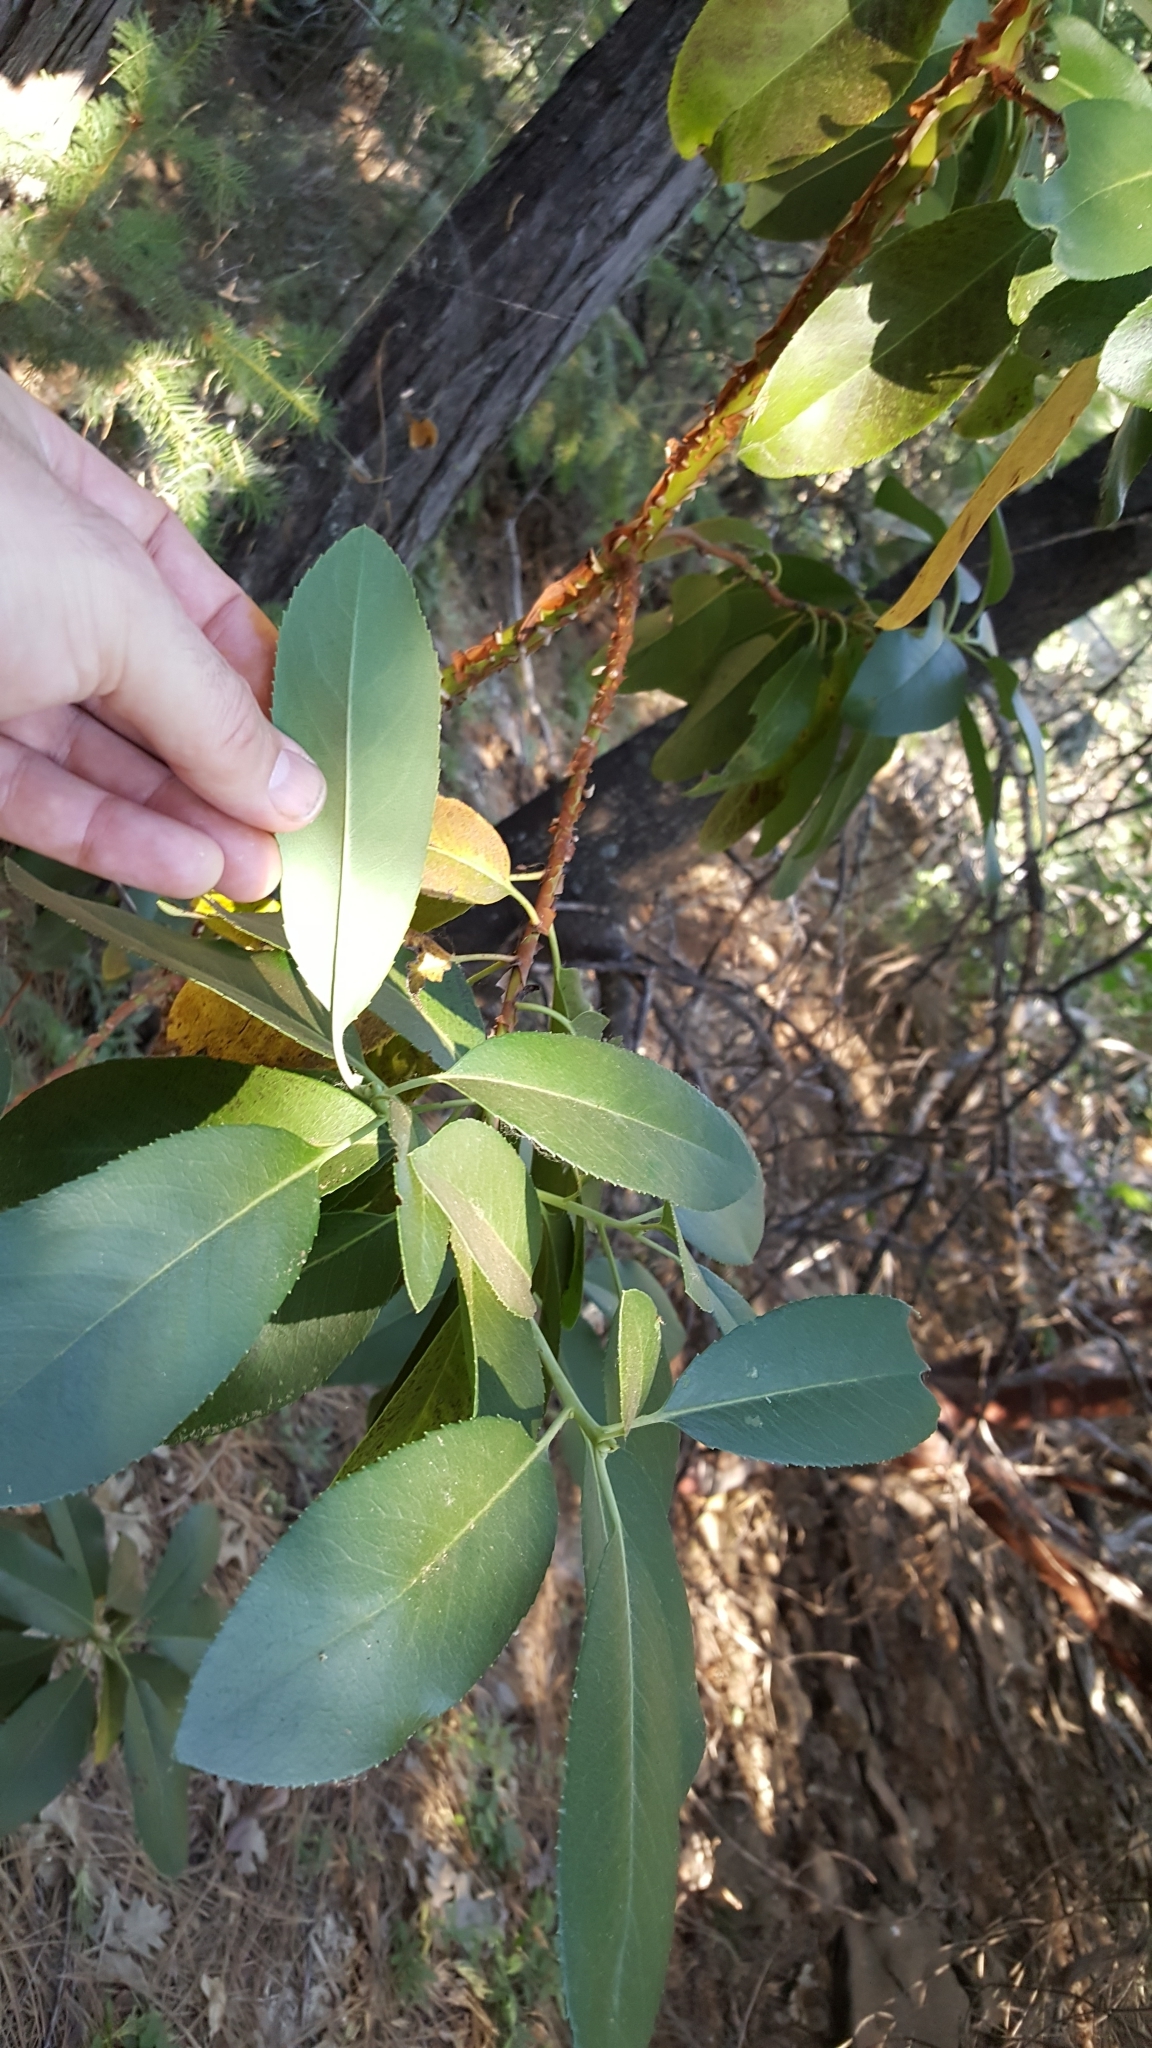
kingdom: Plantae
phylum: Tracheophyta
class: Magnoliopsida
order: Ericales
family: Ericaceae
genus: Arbutus
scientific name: Arbutus menziesii
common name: Pacific madrone
